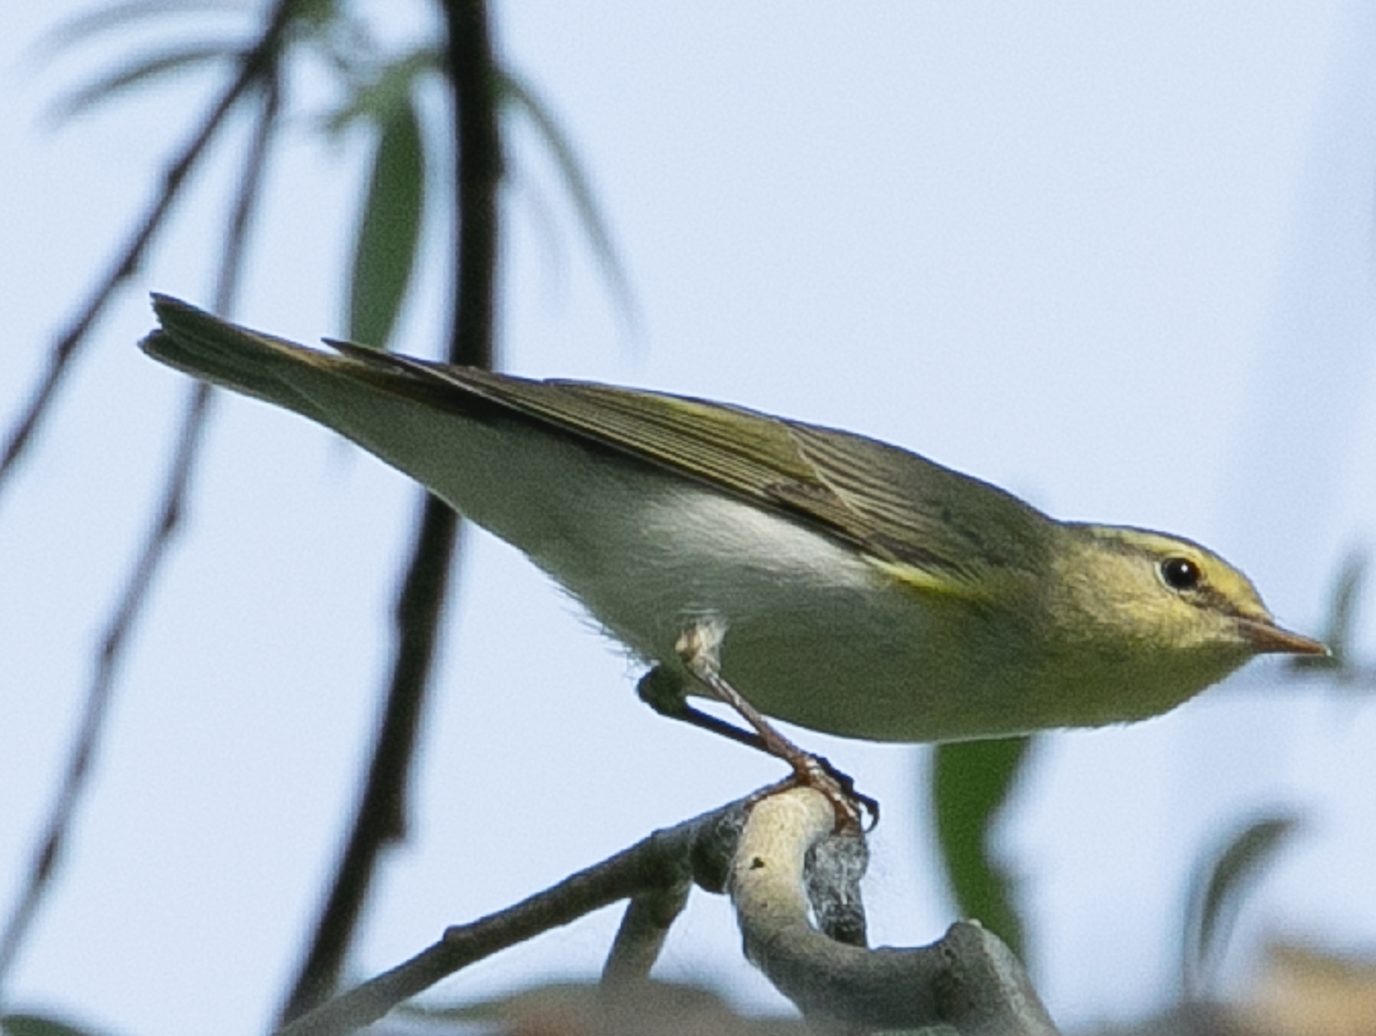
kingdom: Animalia
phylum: Chordata
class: Aves
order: Passeriformes
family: Phylloscopidae
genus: Phylloscopus
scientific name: Phylloscopus sibillatrix
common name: Wood warbler
